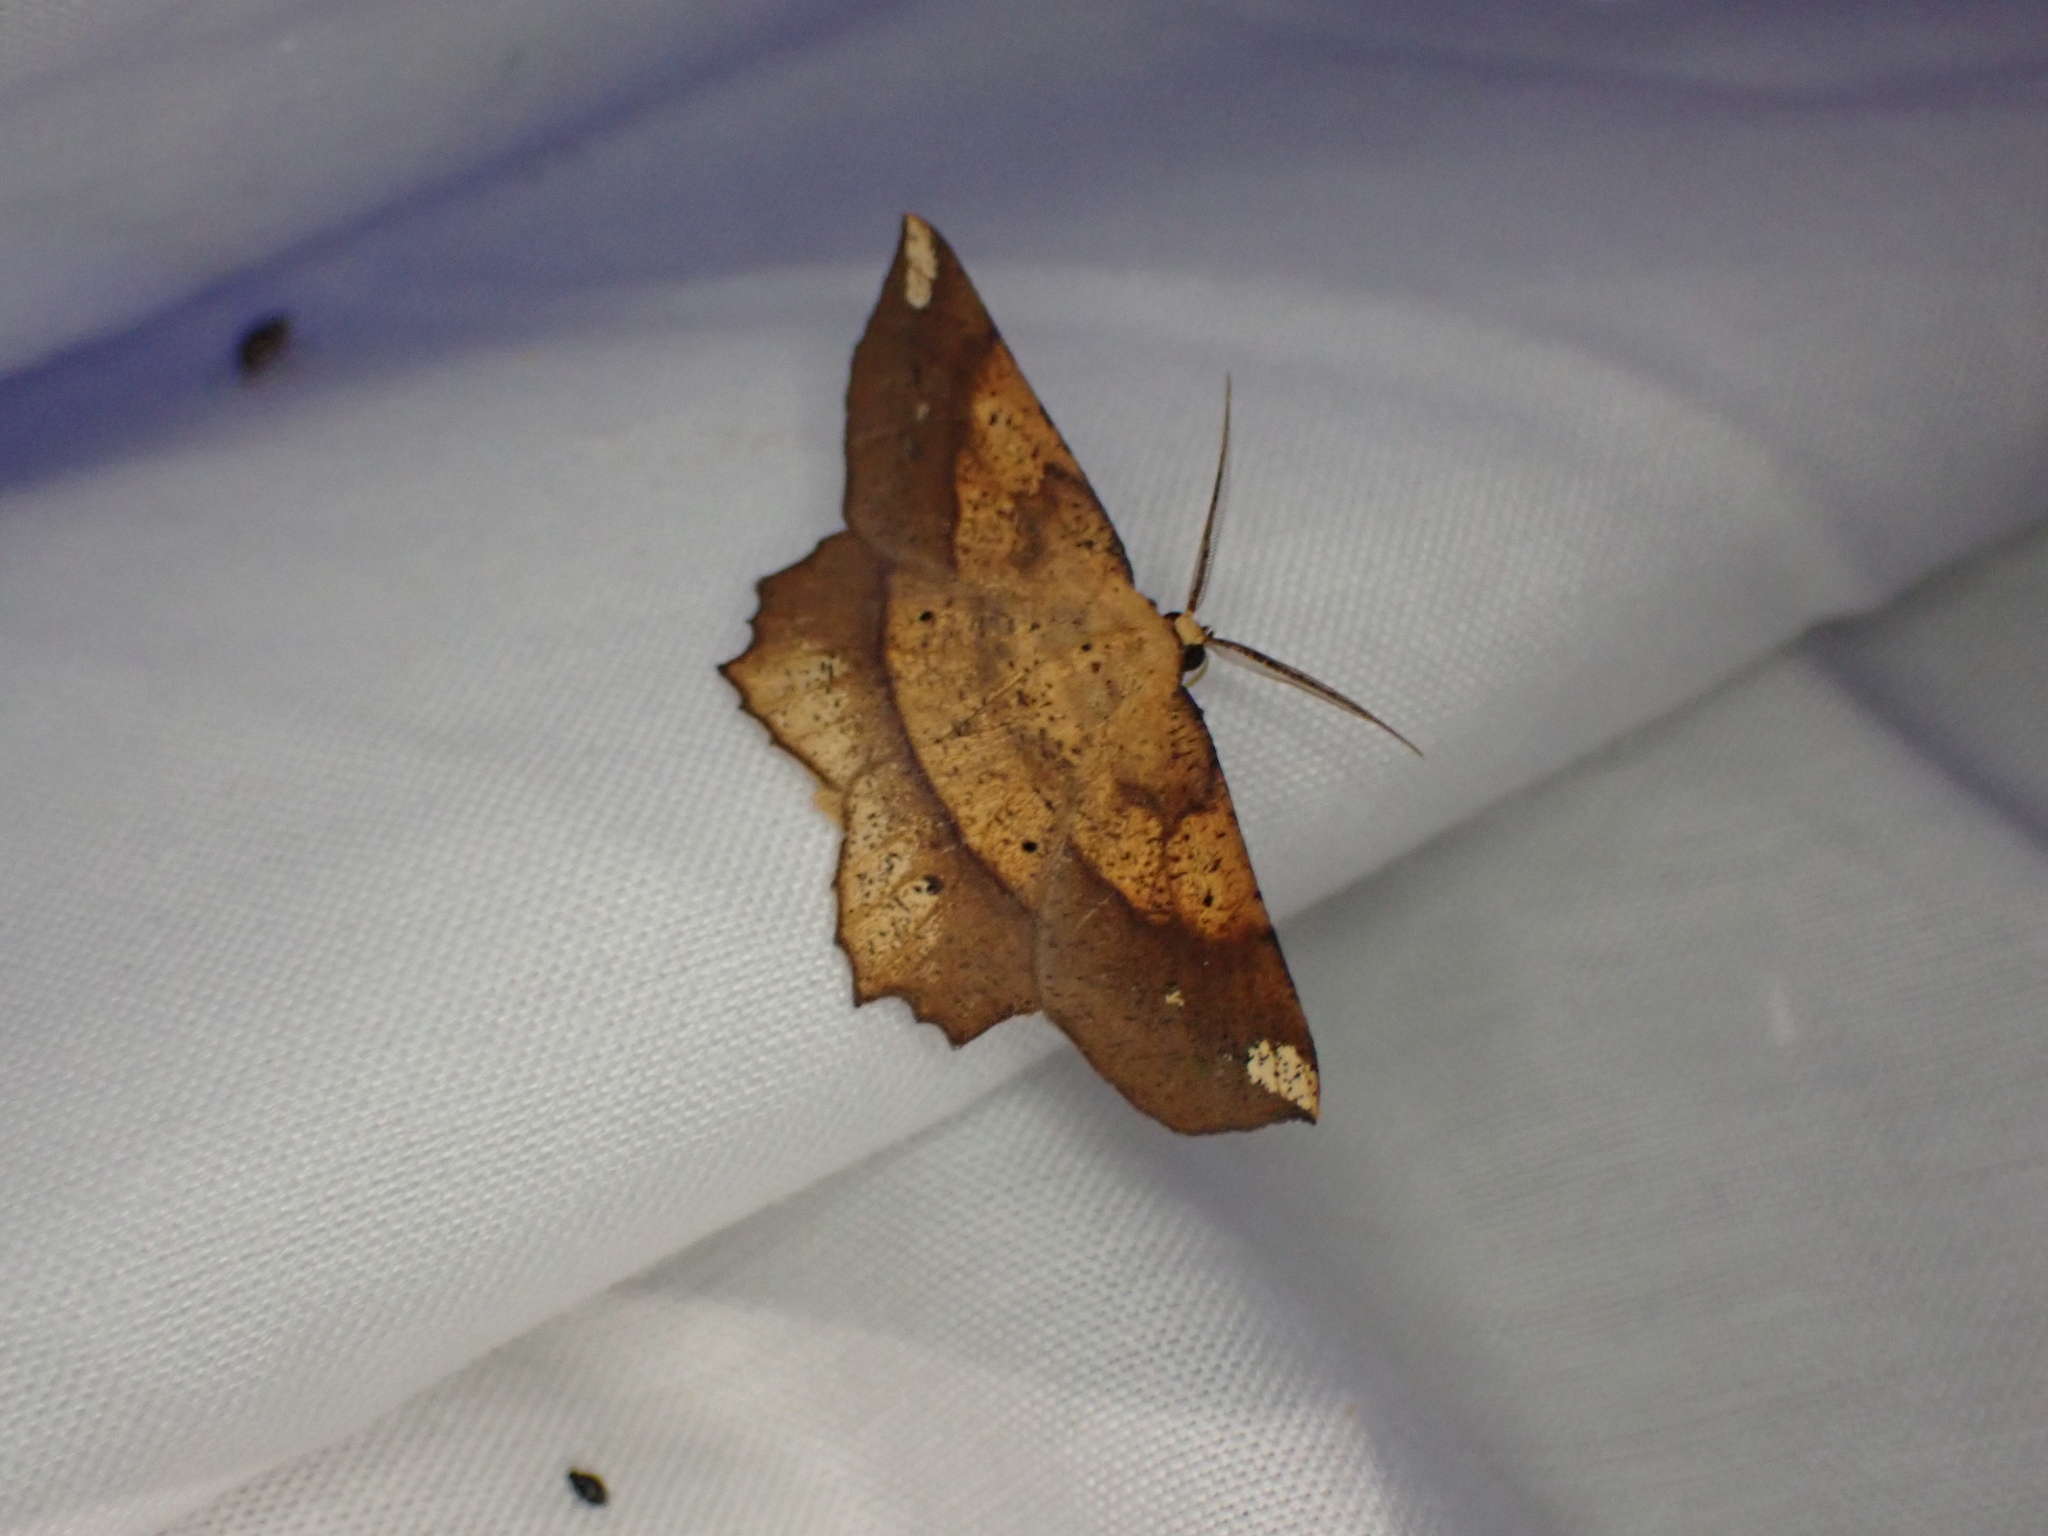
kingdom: Animalia
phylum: Arthropoda
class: Insecta
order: Lepidoptera
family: Geometridae
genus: Euchlaena
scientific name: Euchlaena amoenaria
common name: Deep yellow euchlaena
